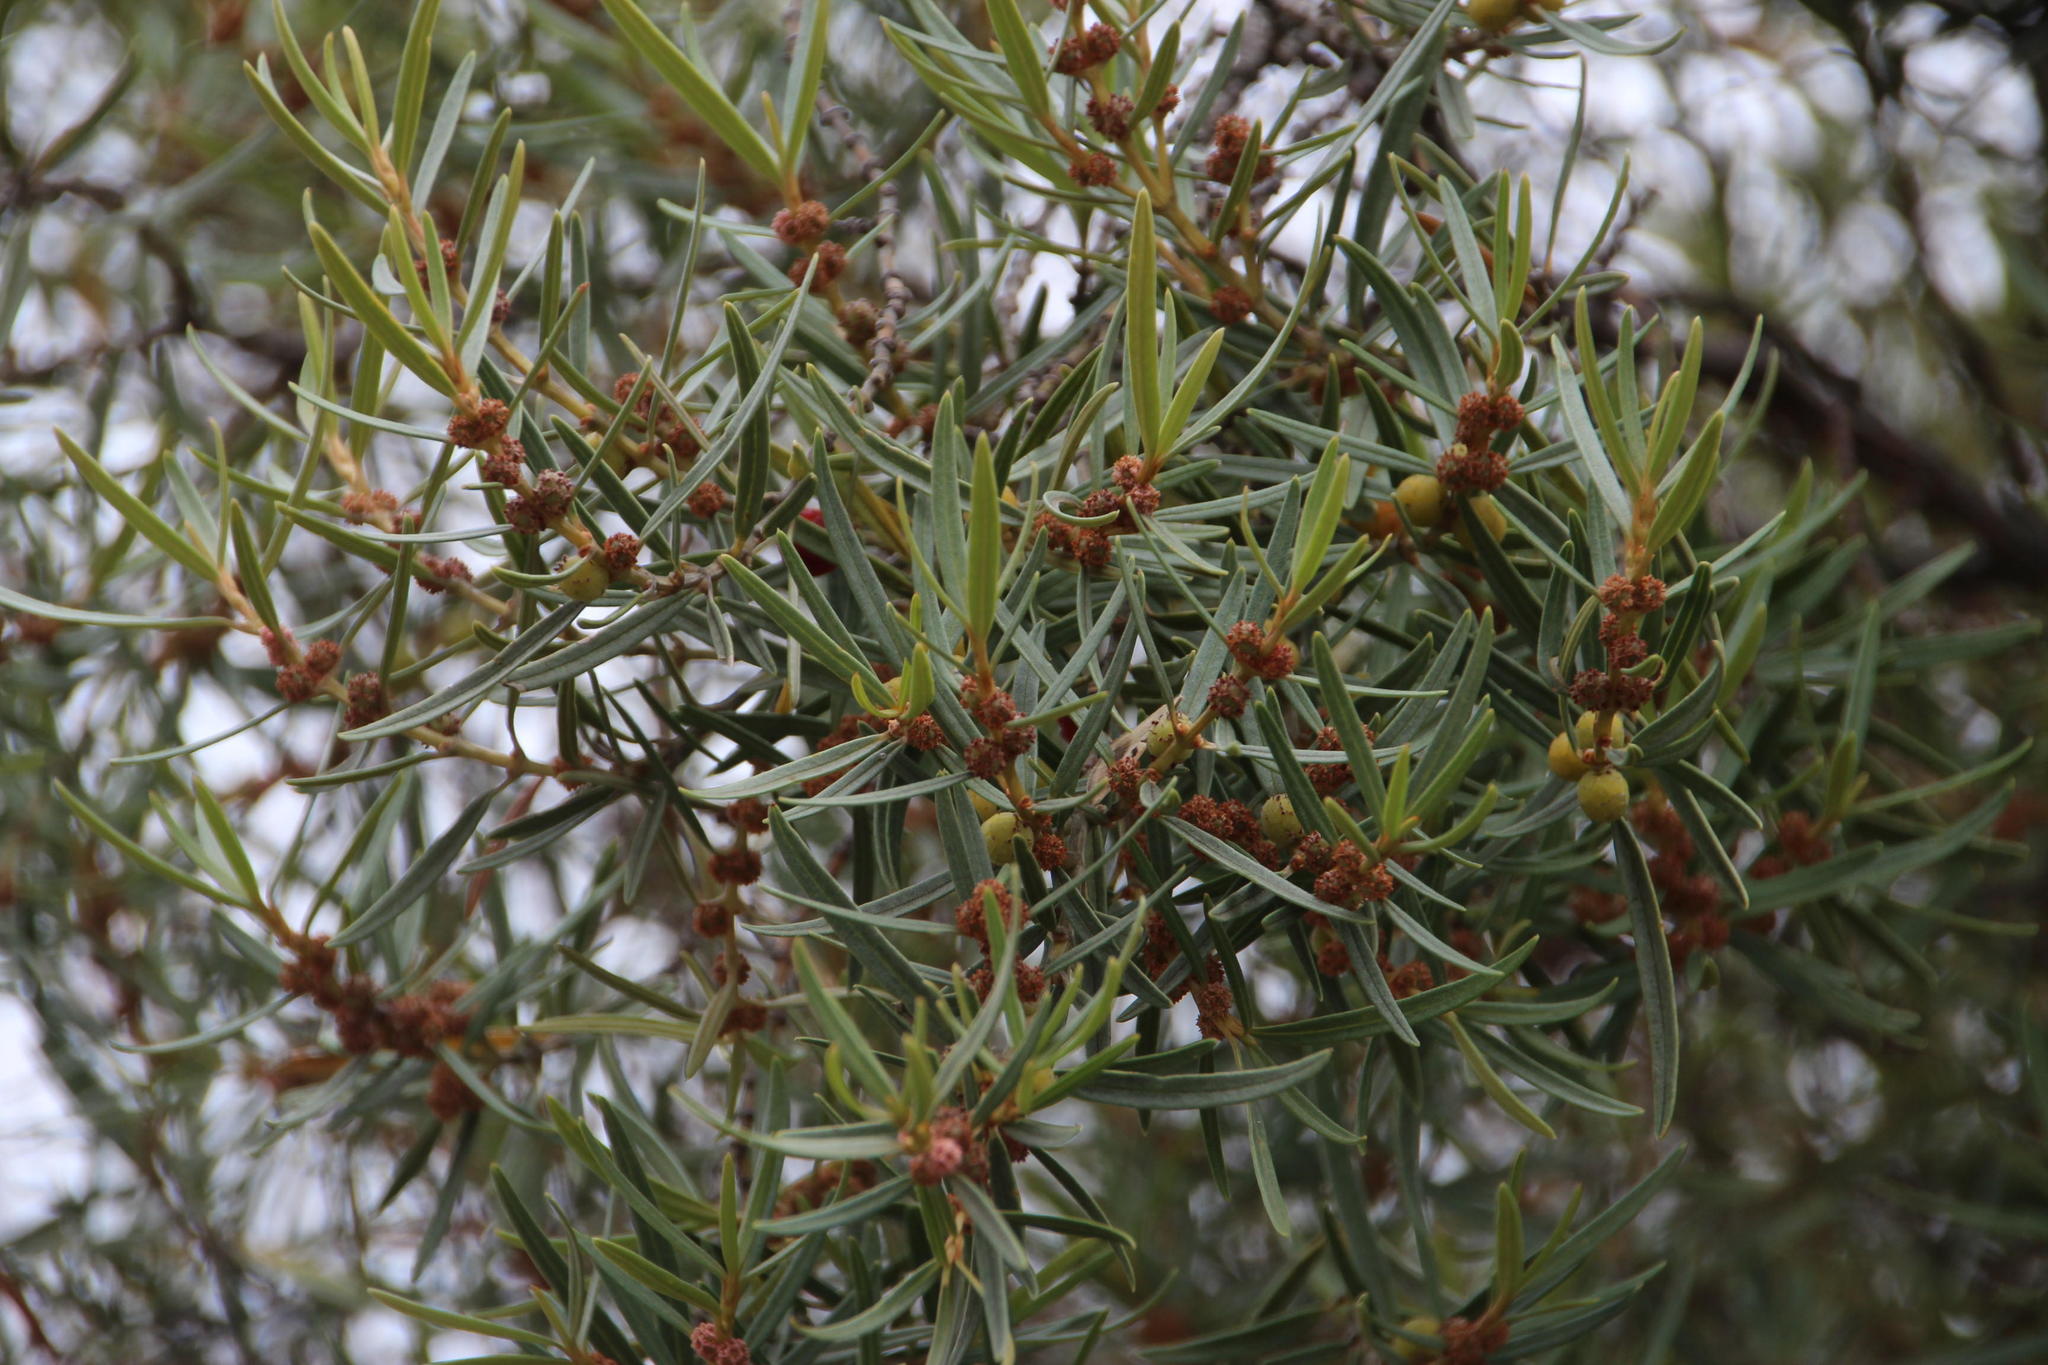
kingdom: Plantae
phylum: Tracheophyta
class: Magnoliopsida
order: Cornales
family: Grubbiaceae
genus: Grubbia
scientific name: Grubbia tomentosa
